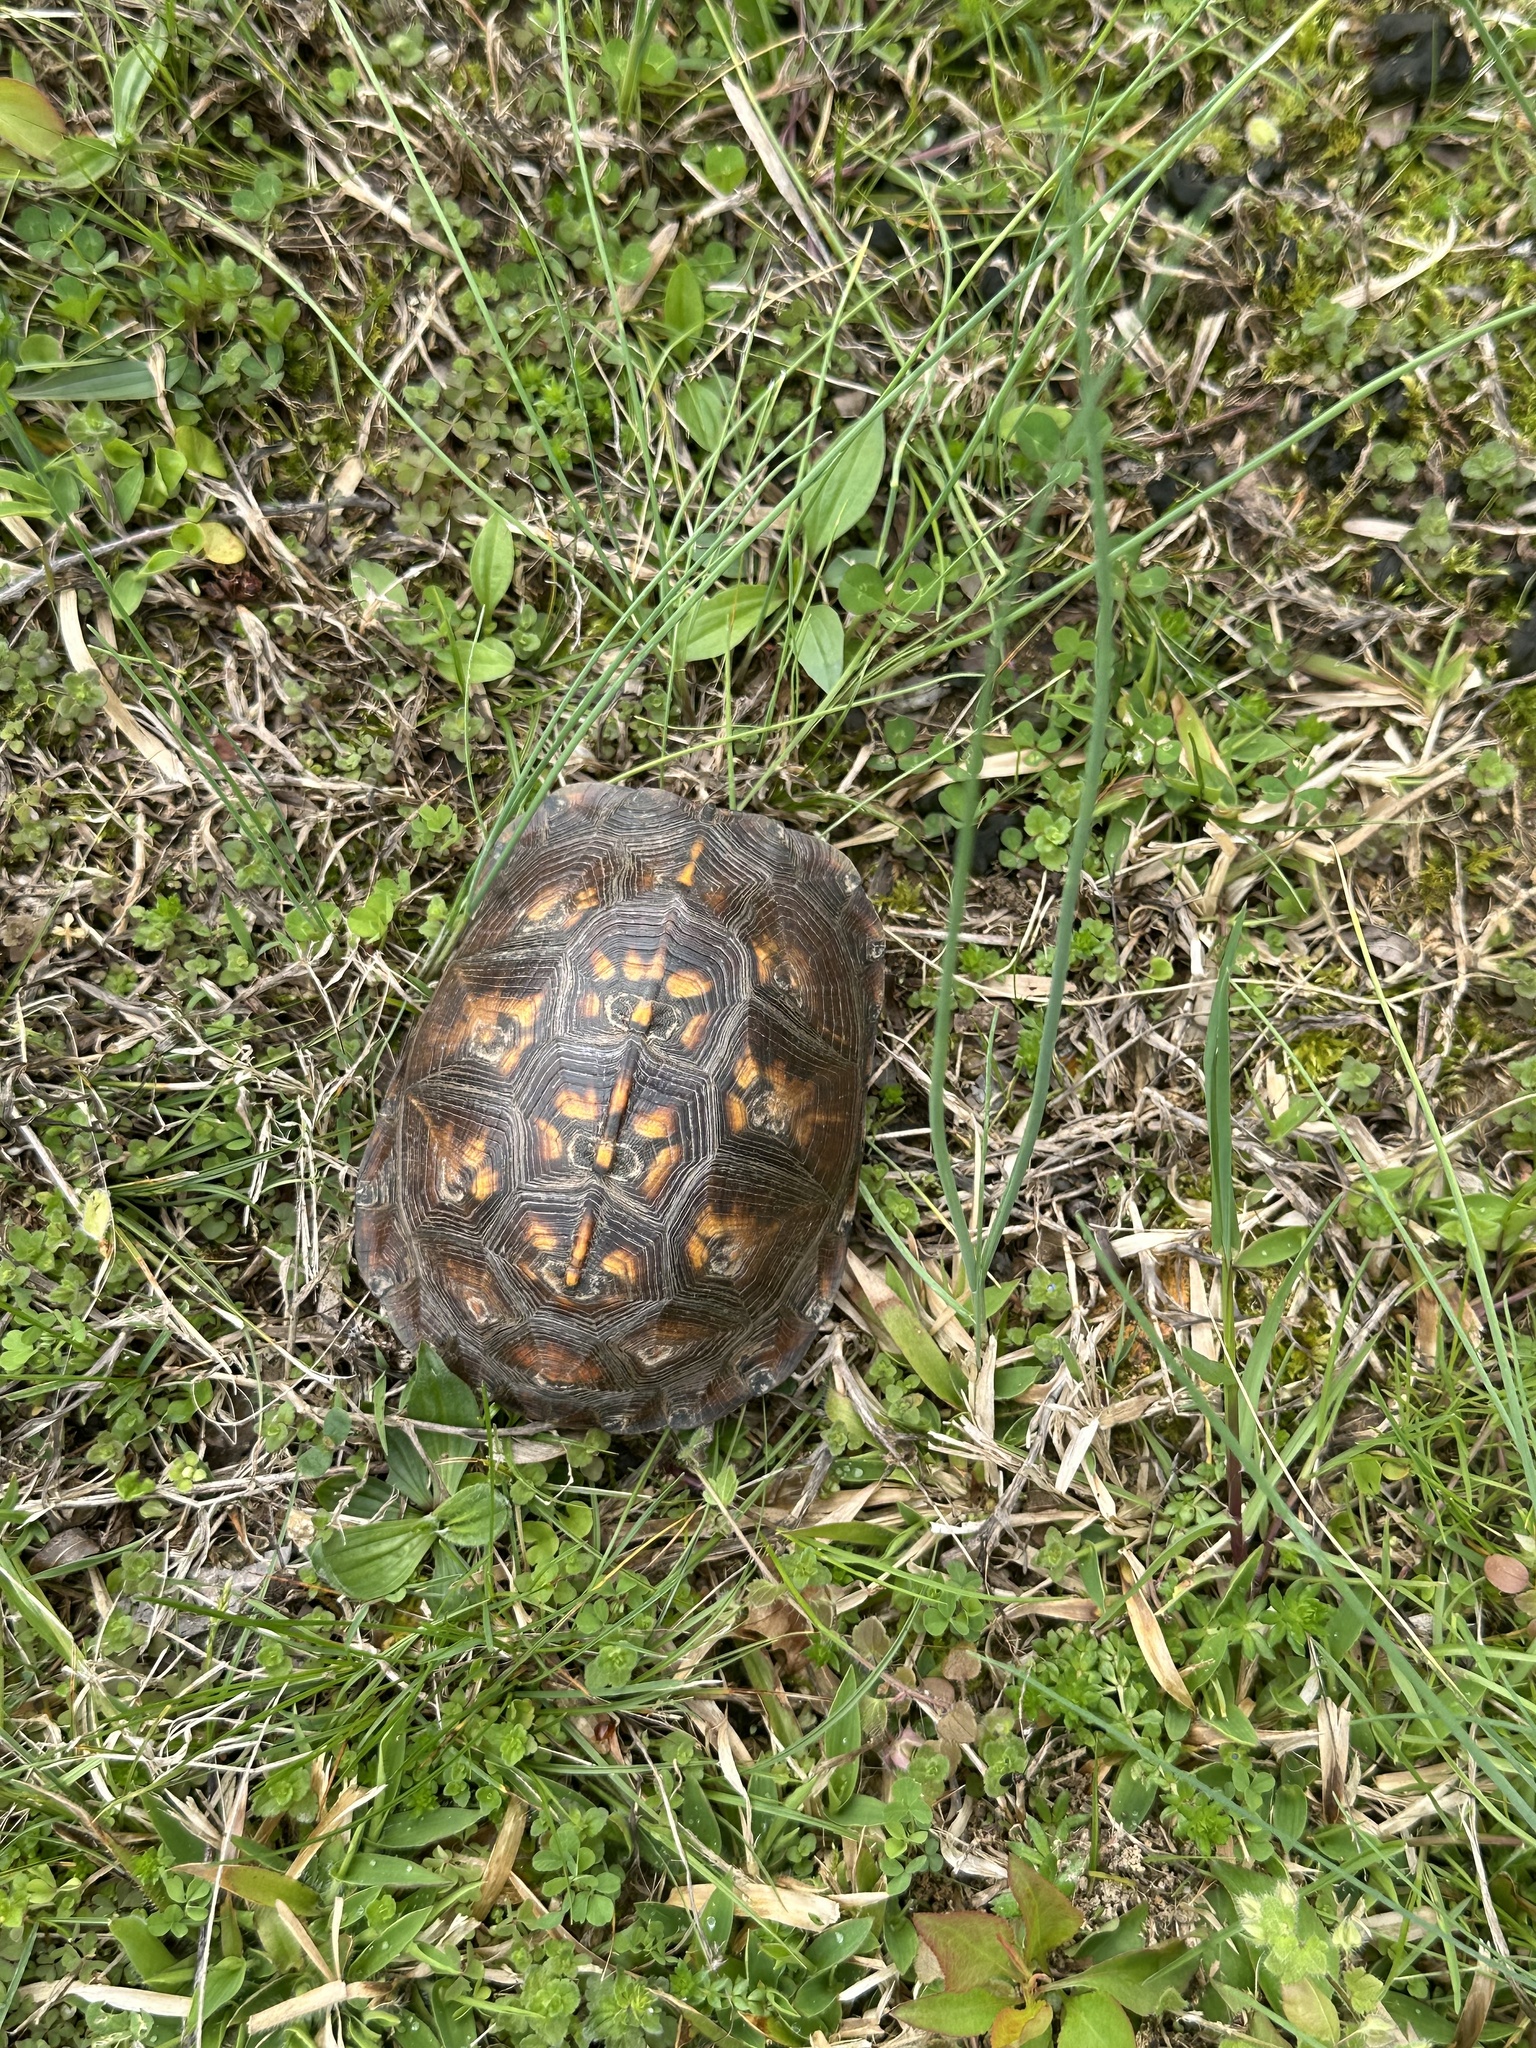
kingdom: Animalia
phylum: Chordata
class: Testudines
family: Emydidae
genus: Terrapene
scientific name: Terrapene carolina
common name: Common box turtle
